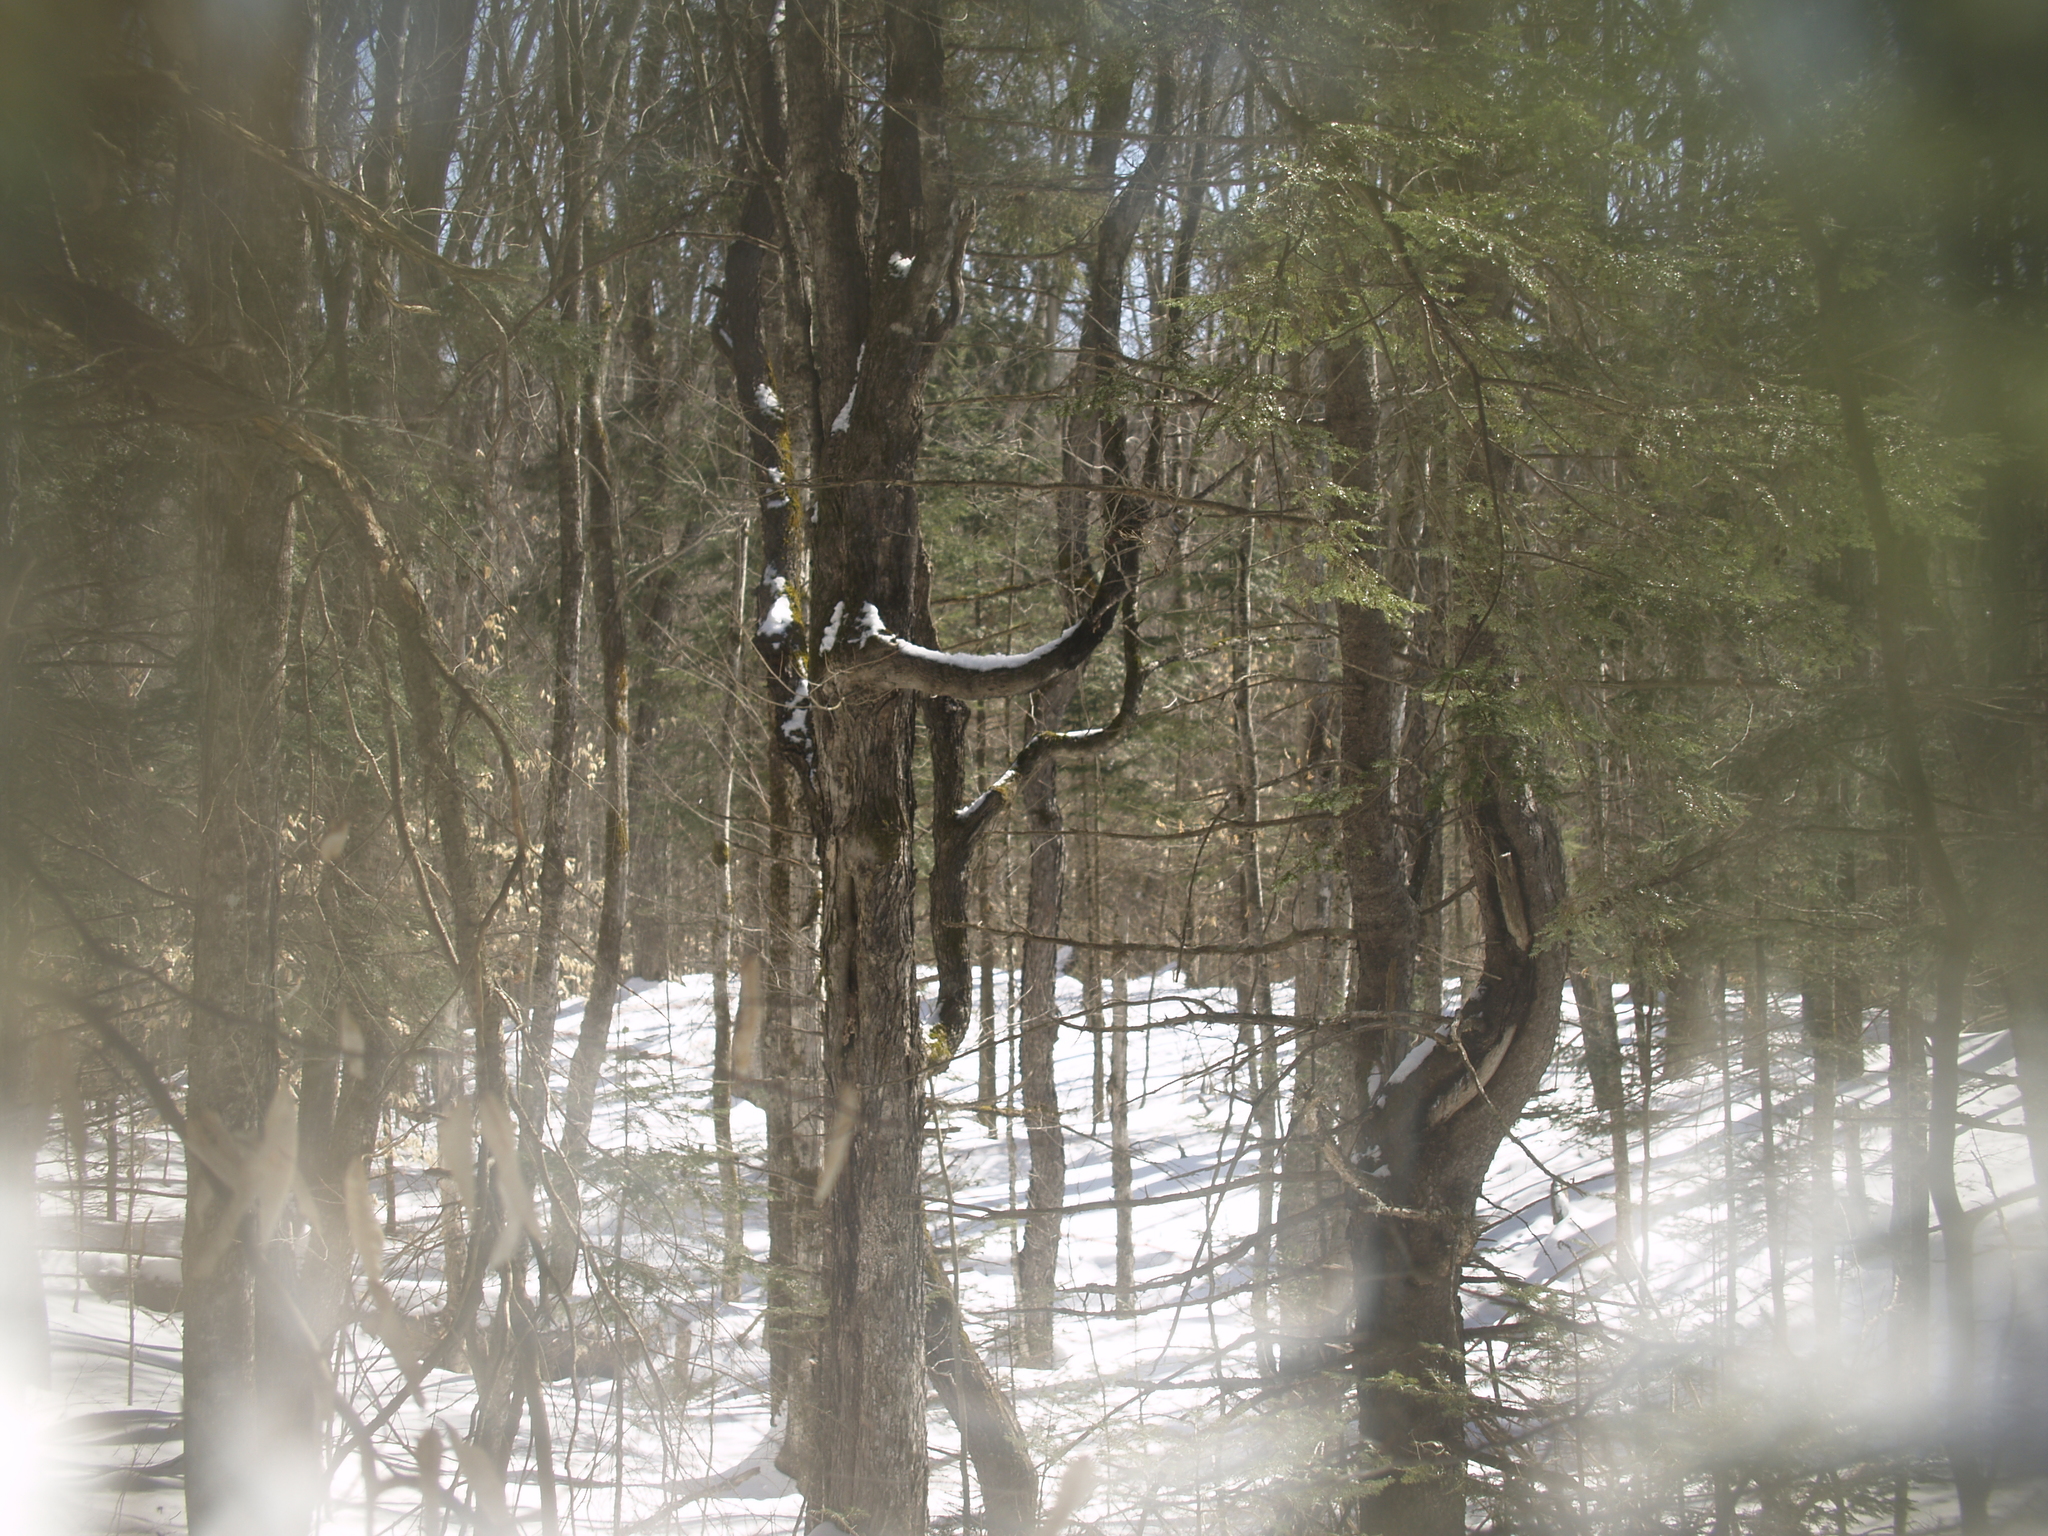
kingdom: Plantae
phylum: Tracheophyta
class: Pinopsida
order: Pinales
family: Pinaceae
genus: Tsuga
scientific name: Tsuga canadensis
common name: Eastern hemlock
